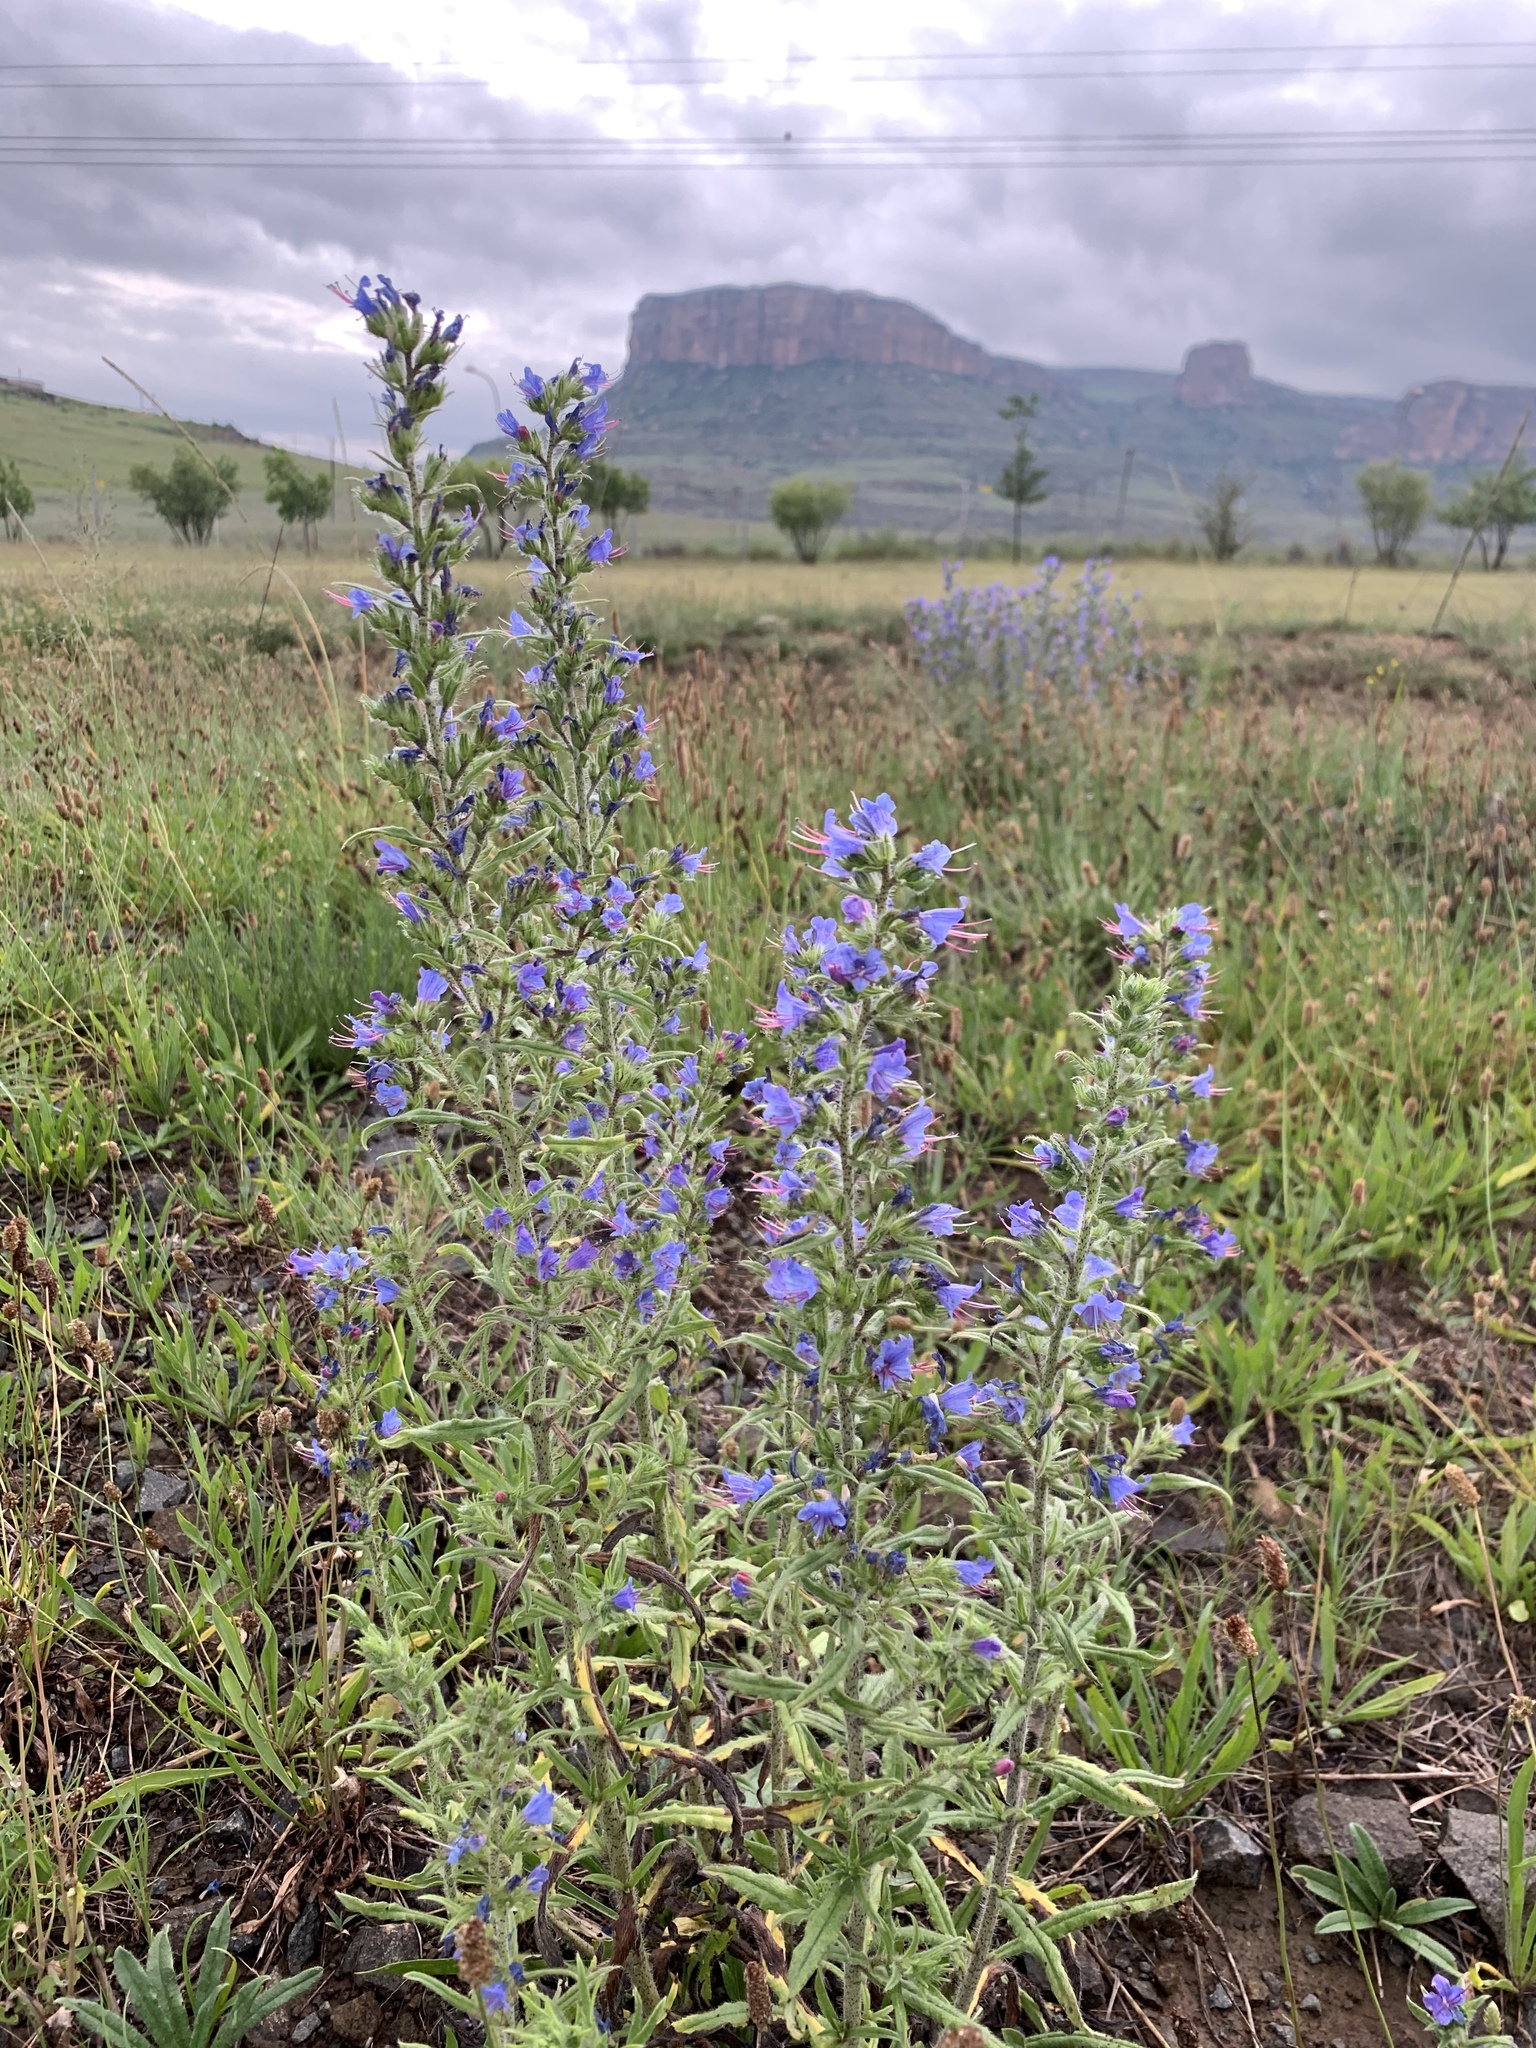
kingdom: Plantae
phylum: Tracheophyta
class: Magnoliopsida
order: Boraginales
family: Boraginaceae
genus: Echium
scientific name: Echium vulgare
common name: Common viper's bugloss
